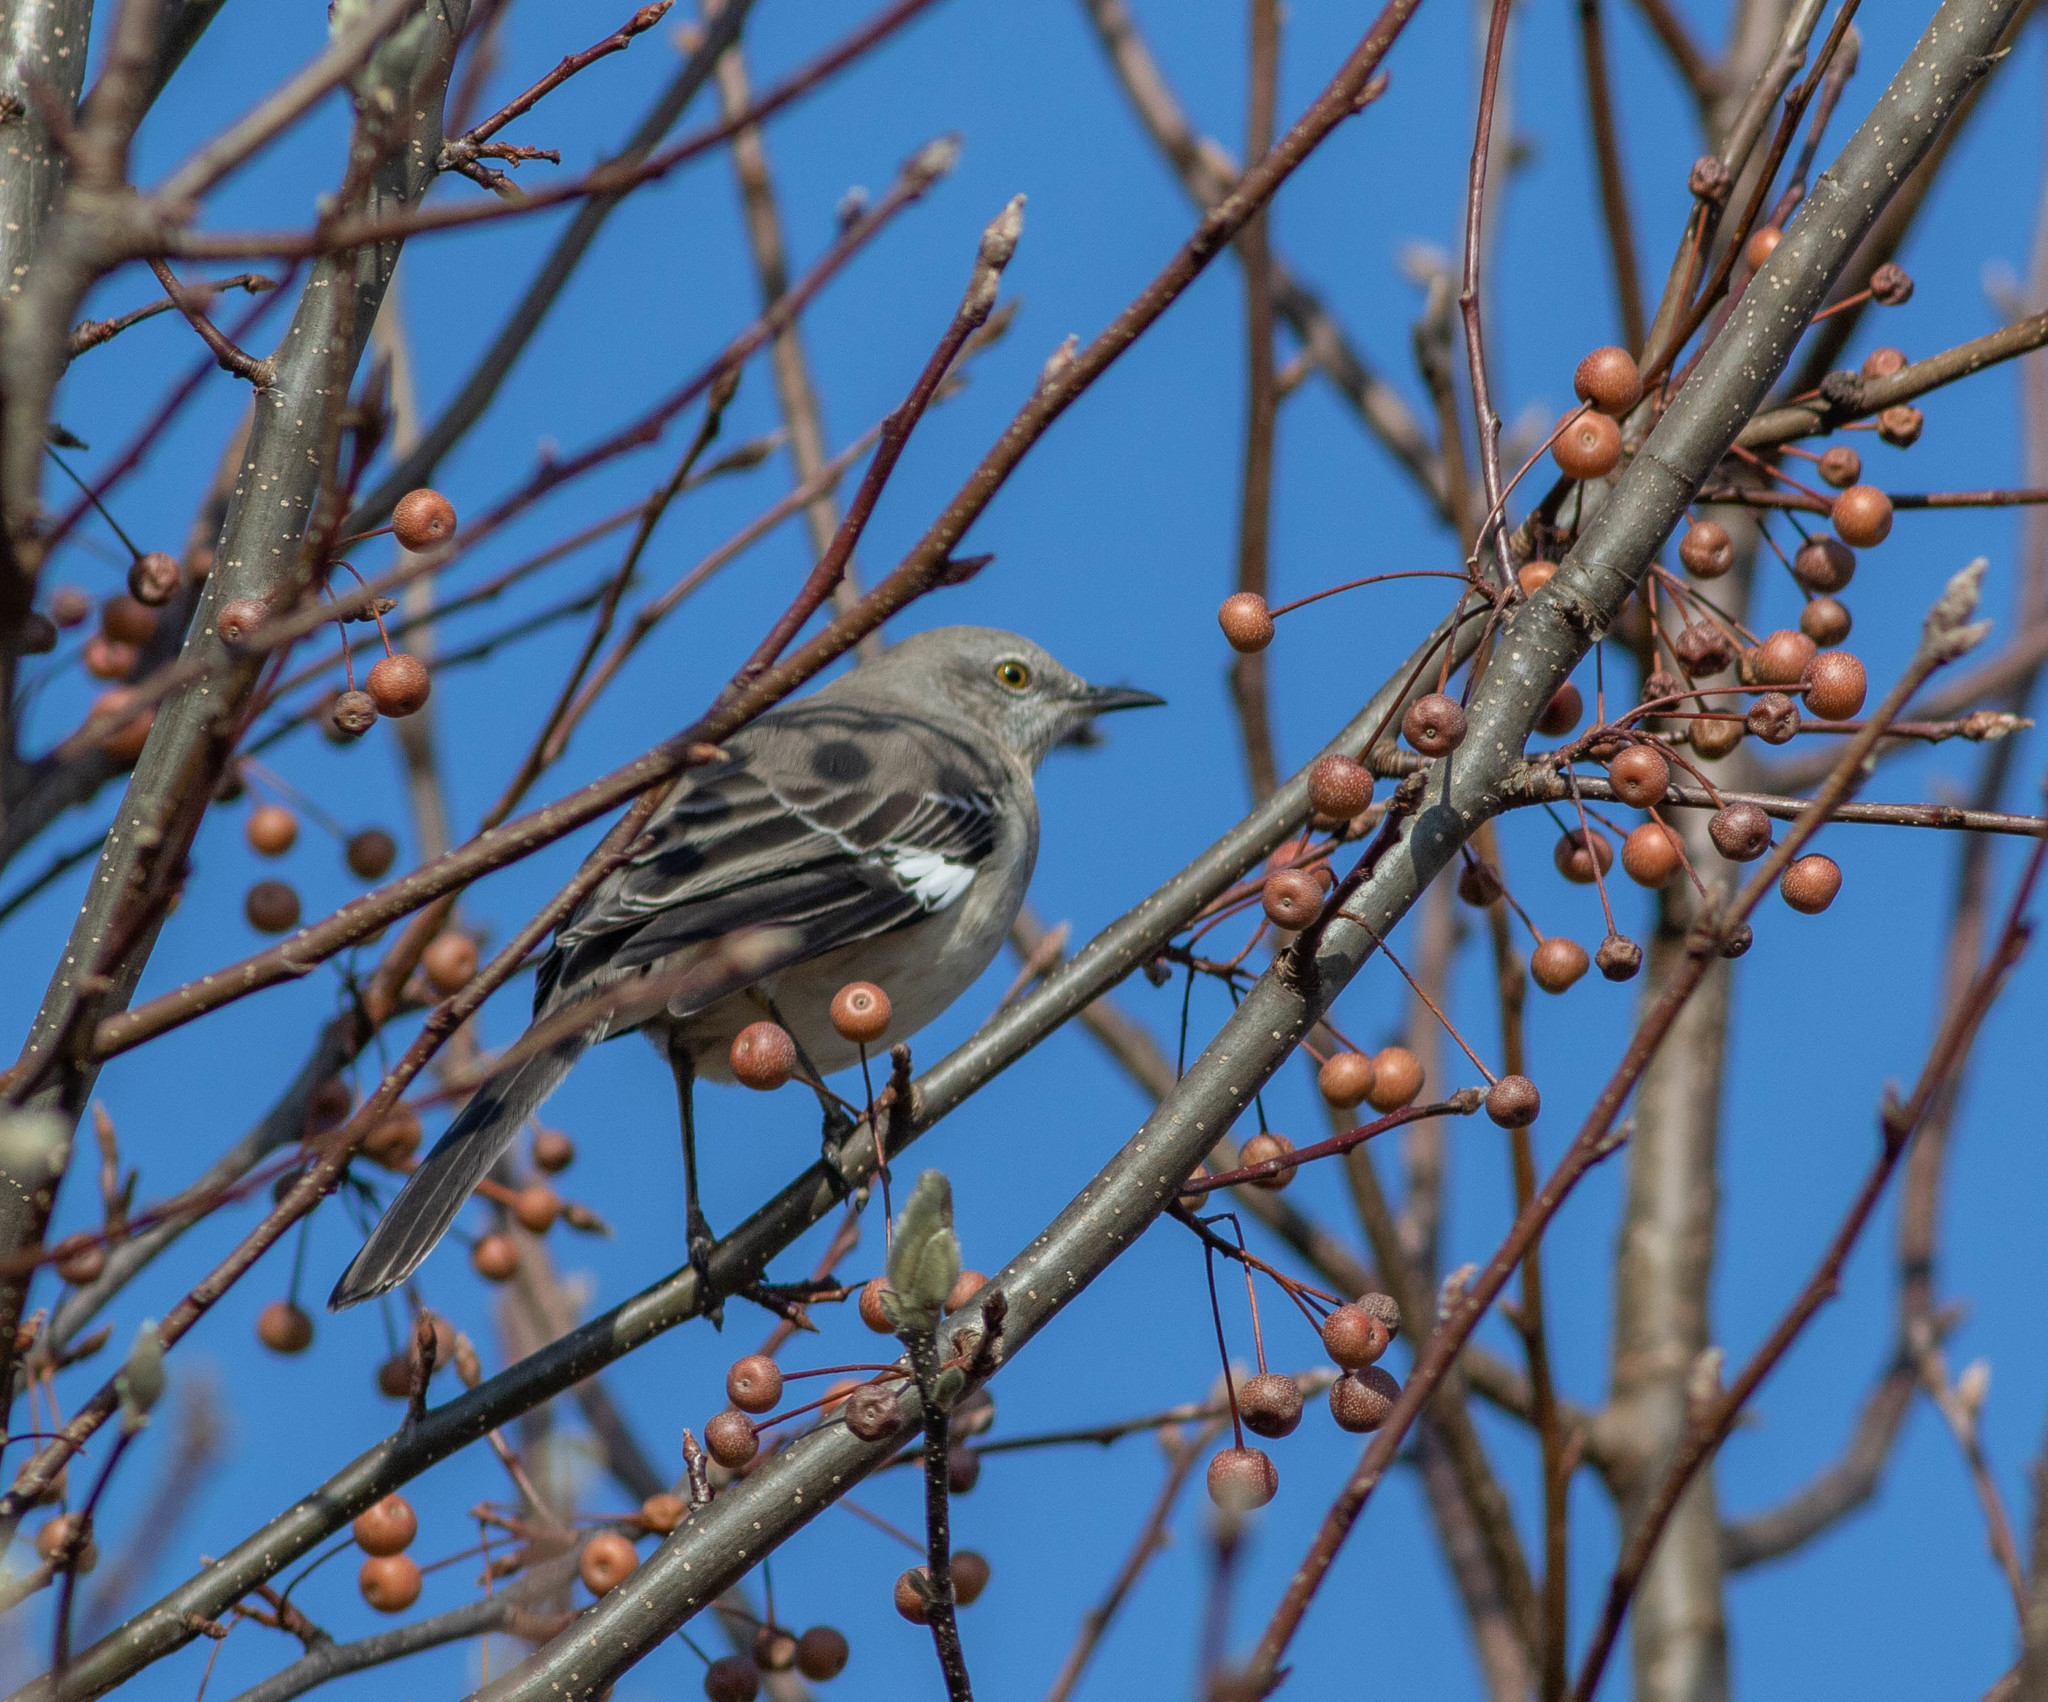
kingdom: Animalia
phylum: Chordata
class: Aves
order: Passeriformes
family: Mimidae
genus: Mimus
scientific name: Mimus polyglottos
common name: Northern mockingbird
